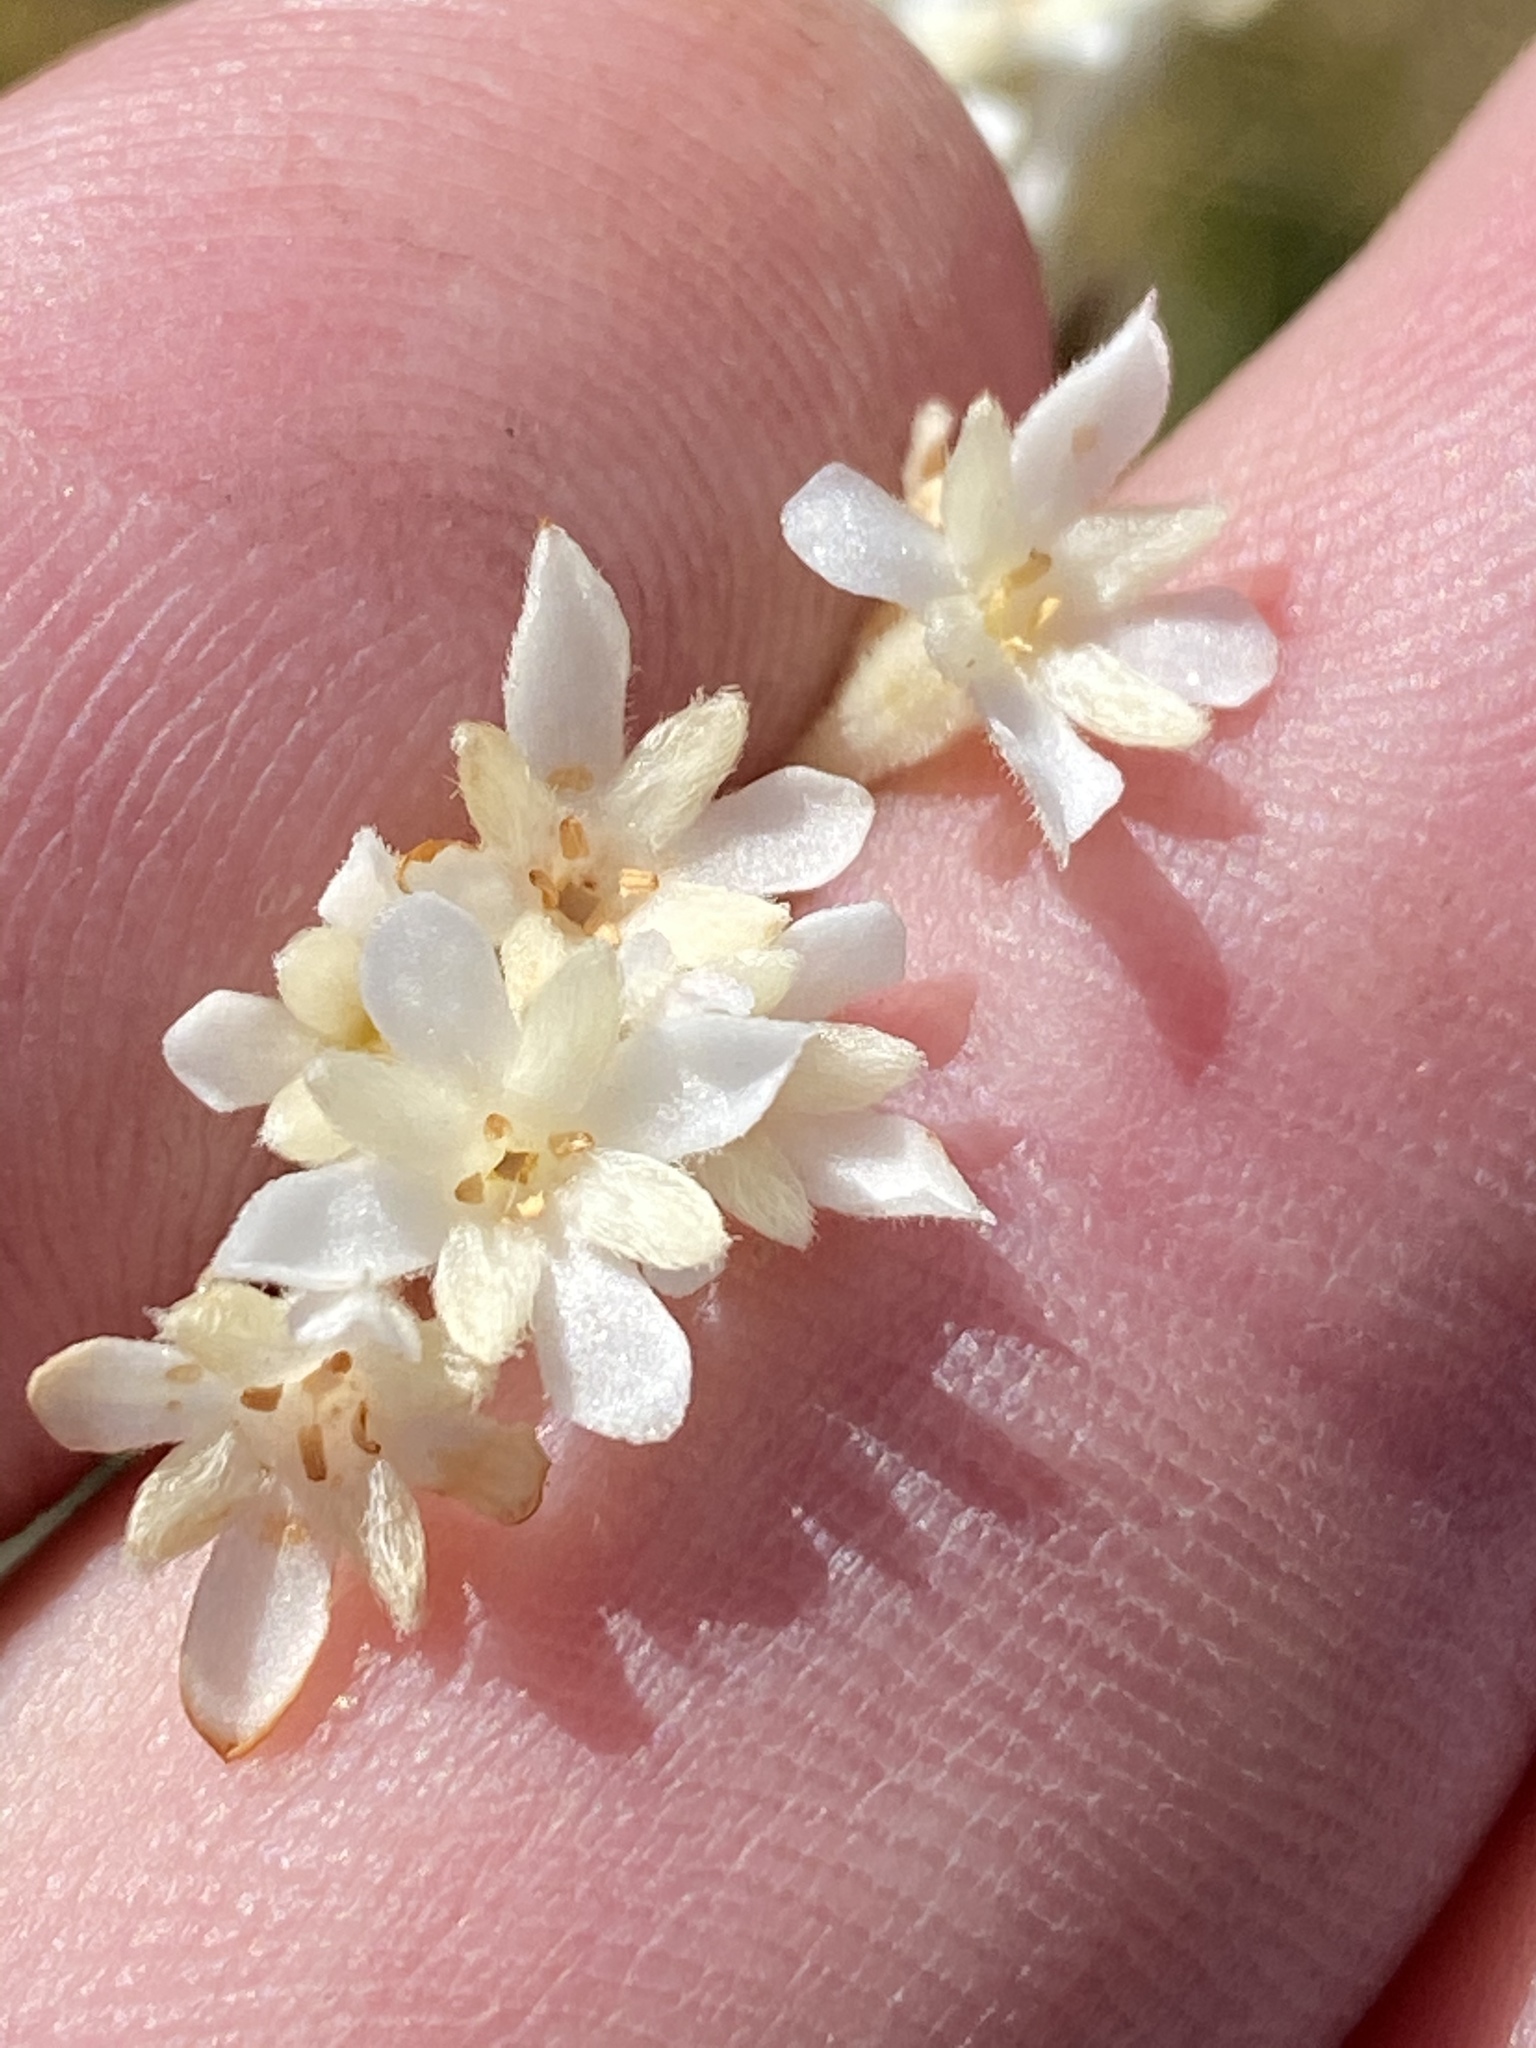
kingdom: Plantae
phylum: Tracheophyta
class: Magnoliopsida
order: Malvales
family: Thymelaeaceae
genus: Gnidia
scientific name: Gnidia pinifolia
